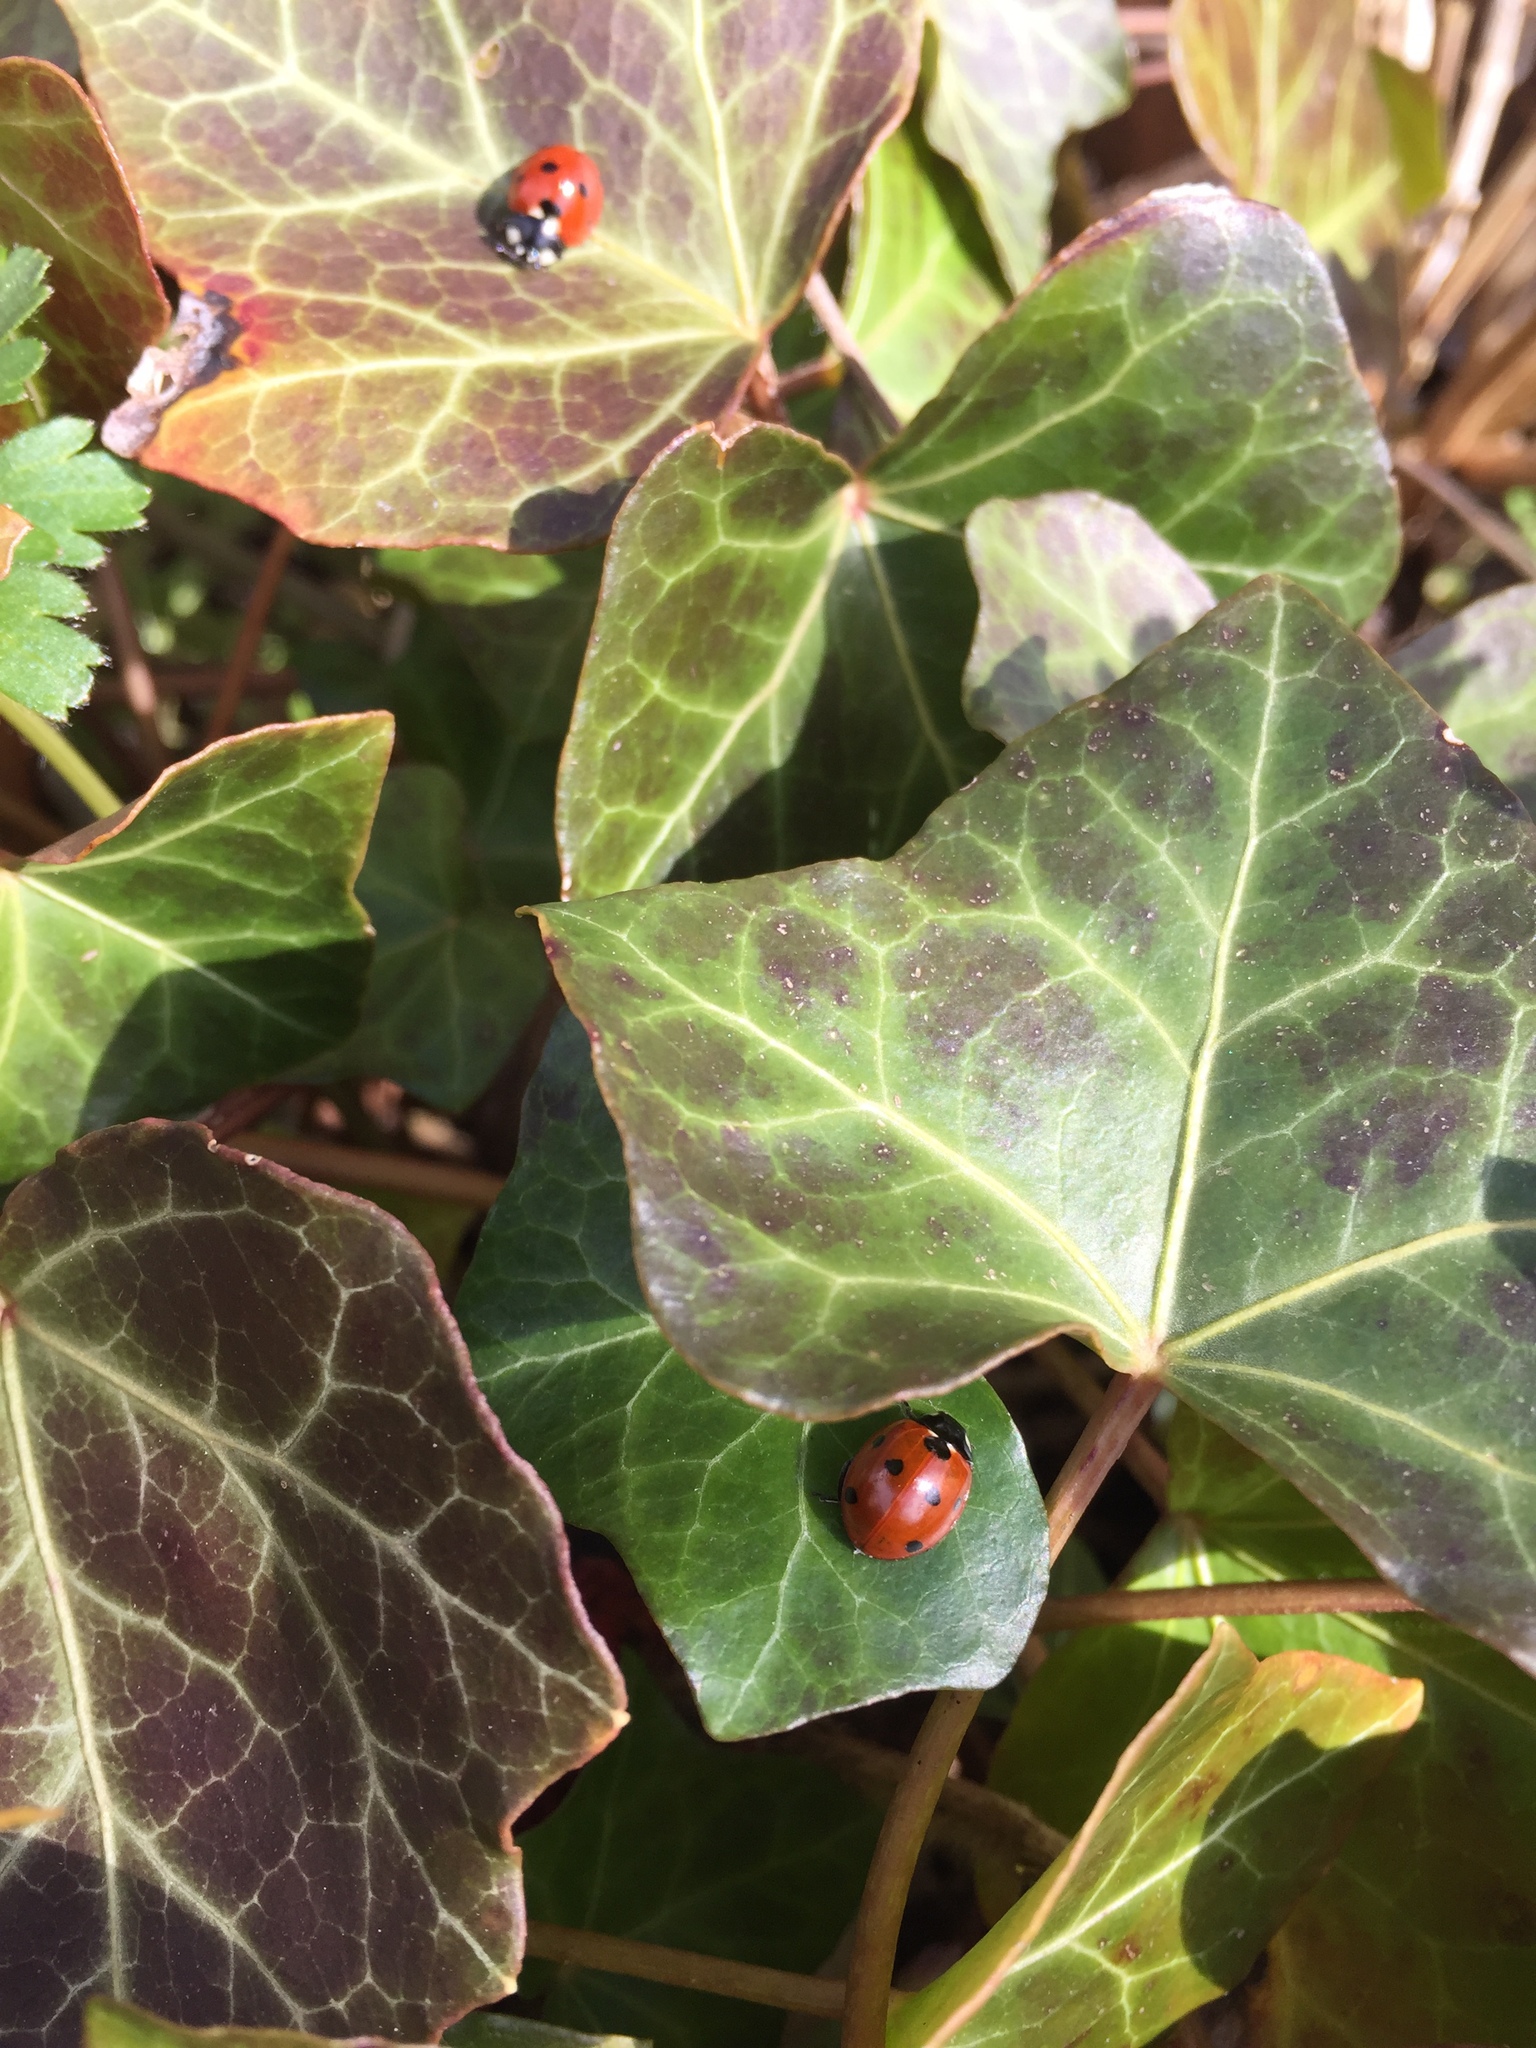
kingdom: Animalia
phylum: Arthropoda
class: Insecta
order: Coleoptera
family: Coccinellidae
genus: Coccinella
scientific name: Coccinella septempunctata
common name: Sevenspotted lady beetle
